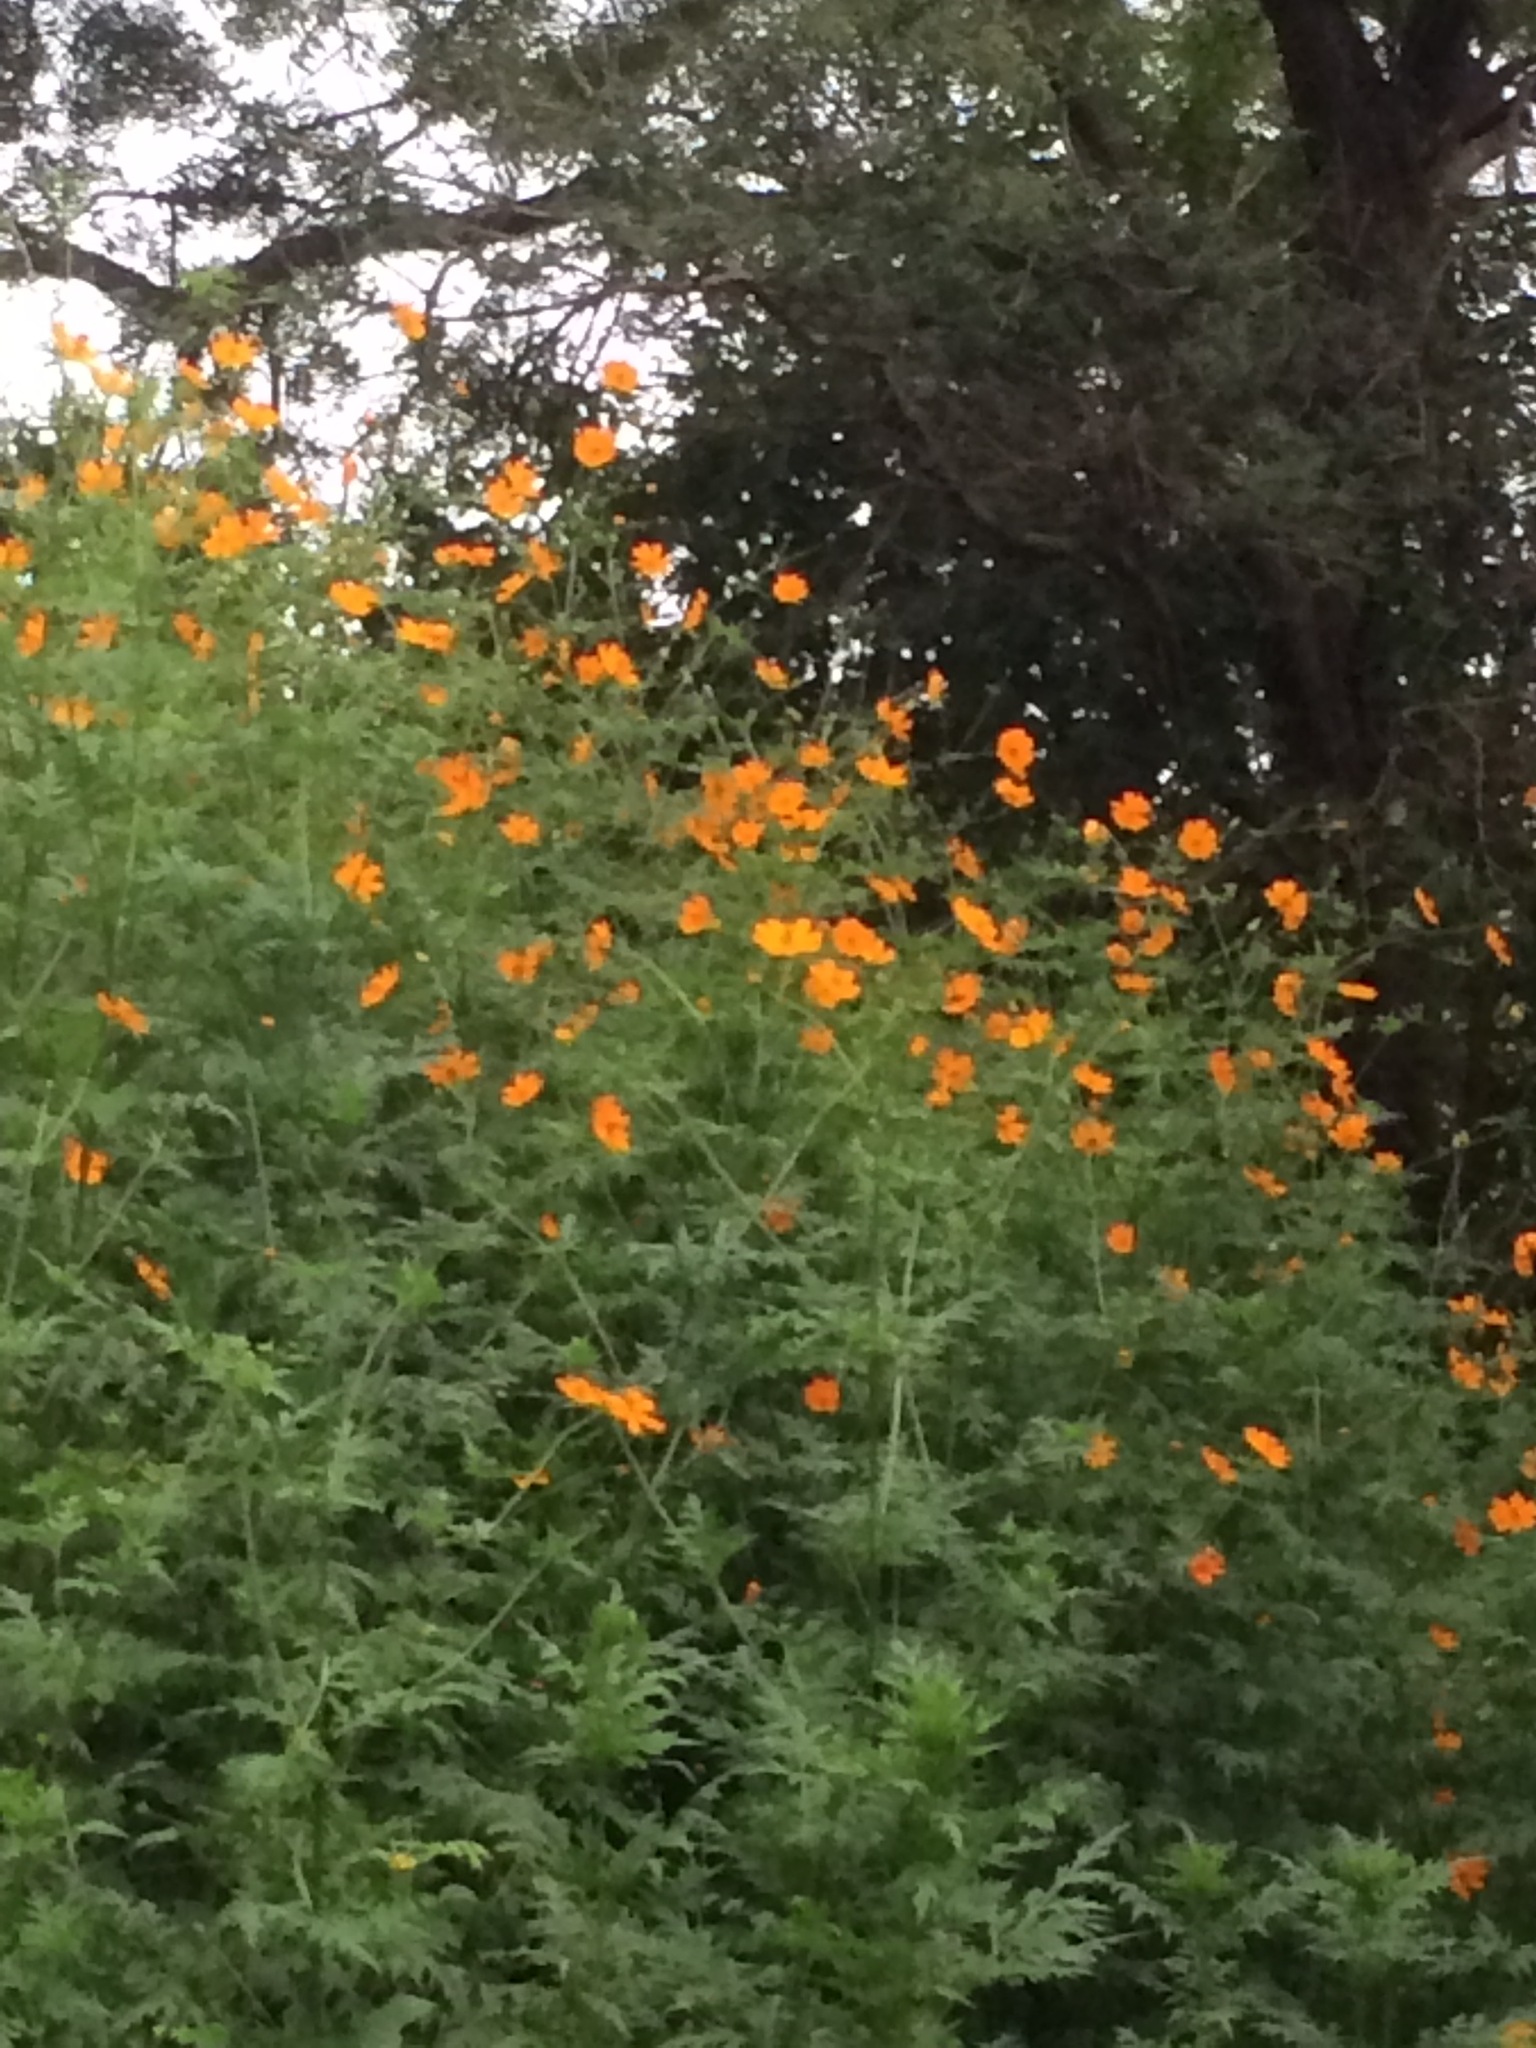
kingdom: Plantae
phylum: Tracheophyta
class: Magnoliopsida
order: Asterales
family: Asteraceae
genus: Cosmos
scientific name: Cosmos sulphureus
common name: Sulphur cosmos
